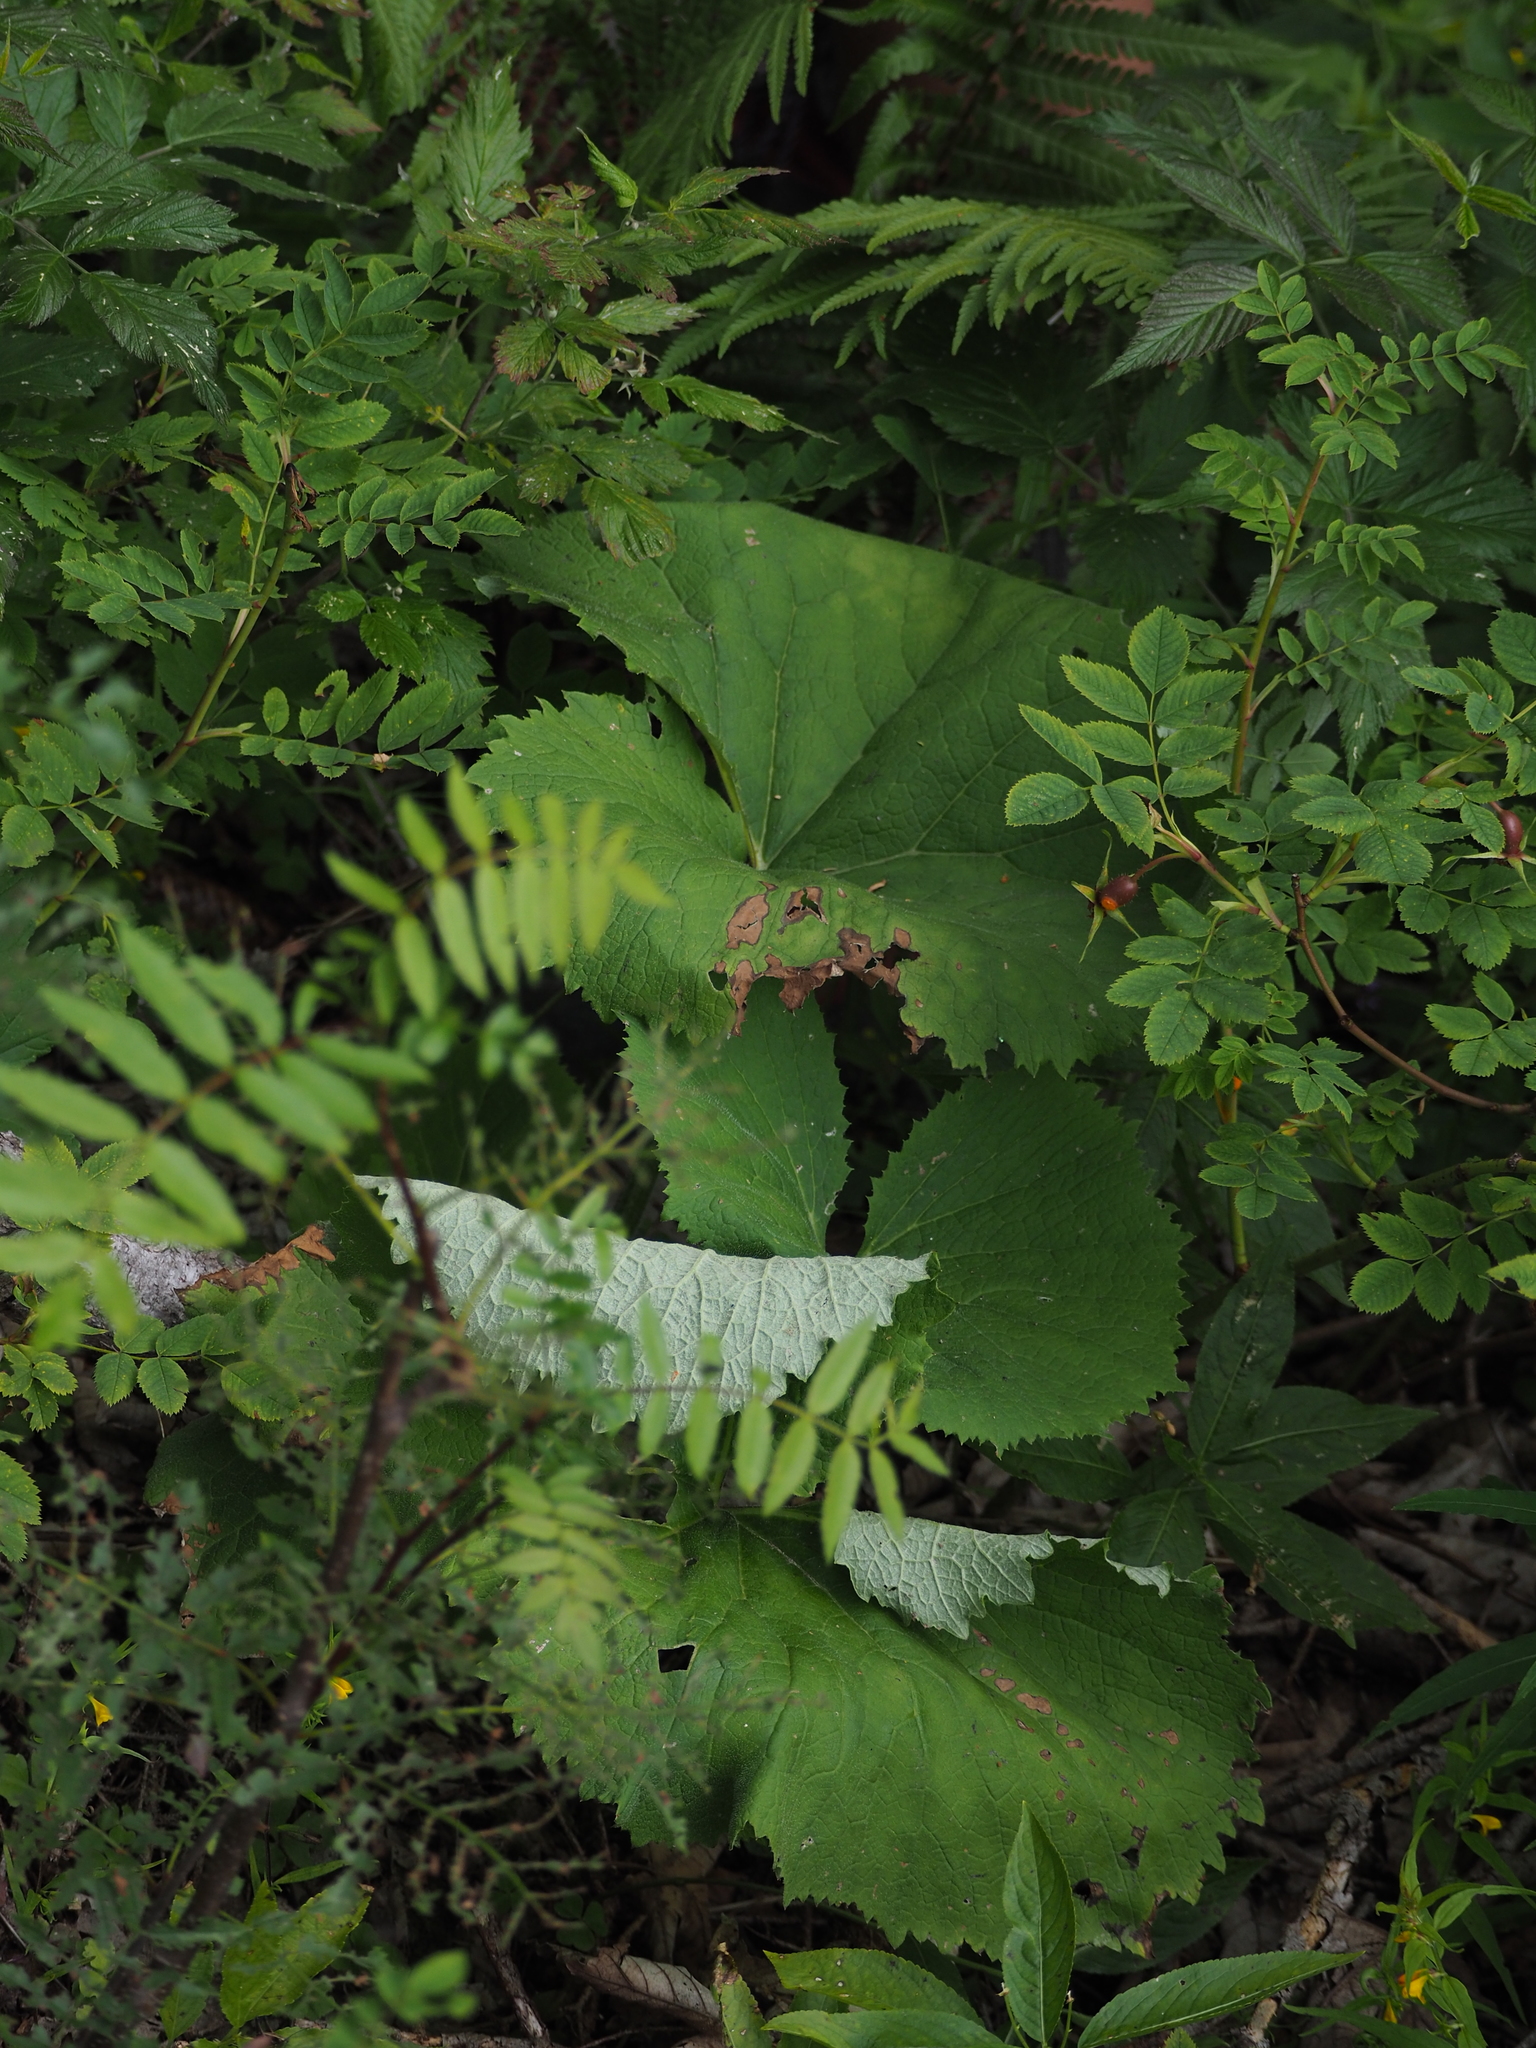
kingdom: Plantae
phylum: Tracheophyta
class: Magnoliopsida
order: Asterales
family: Asteraceae
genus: Adenostyles
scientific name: Adenostyles alliariae
